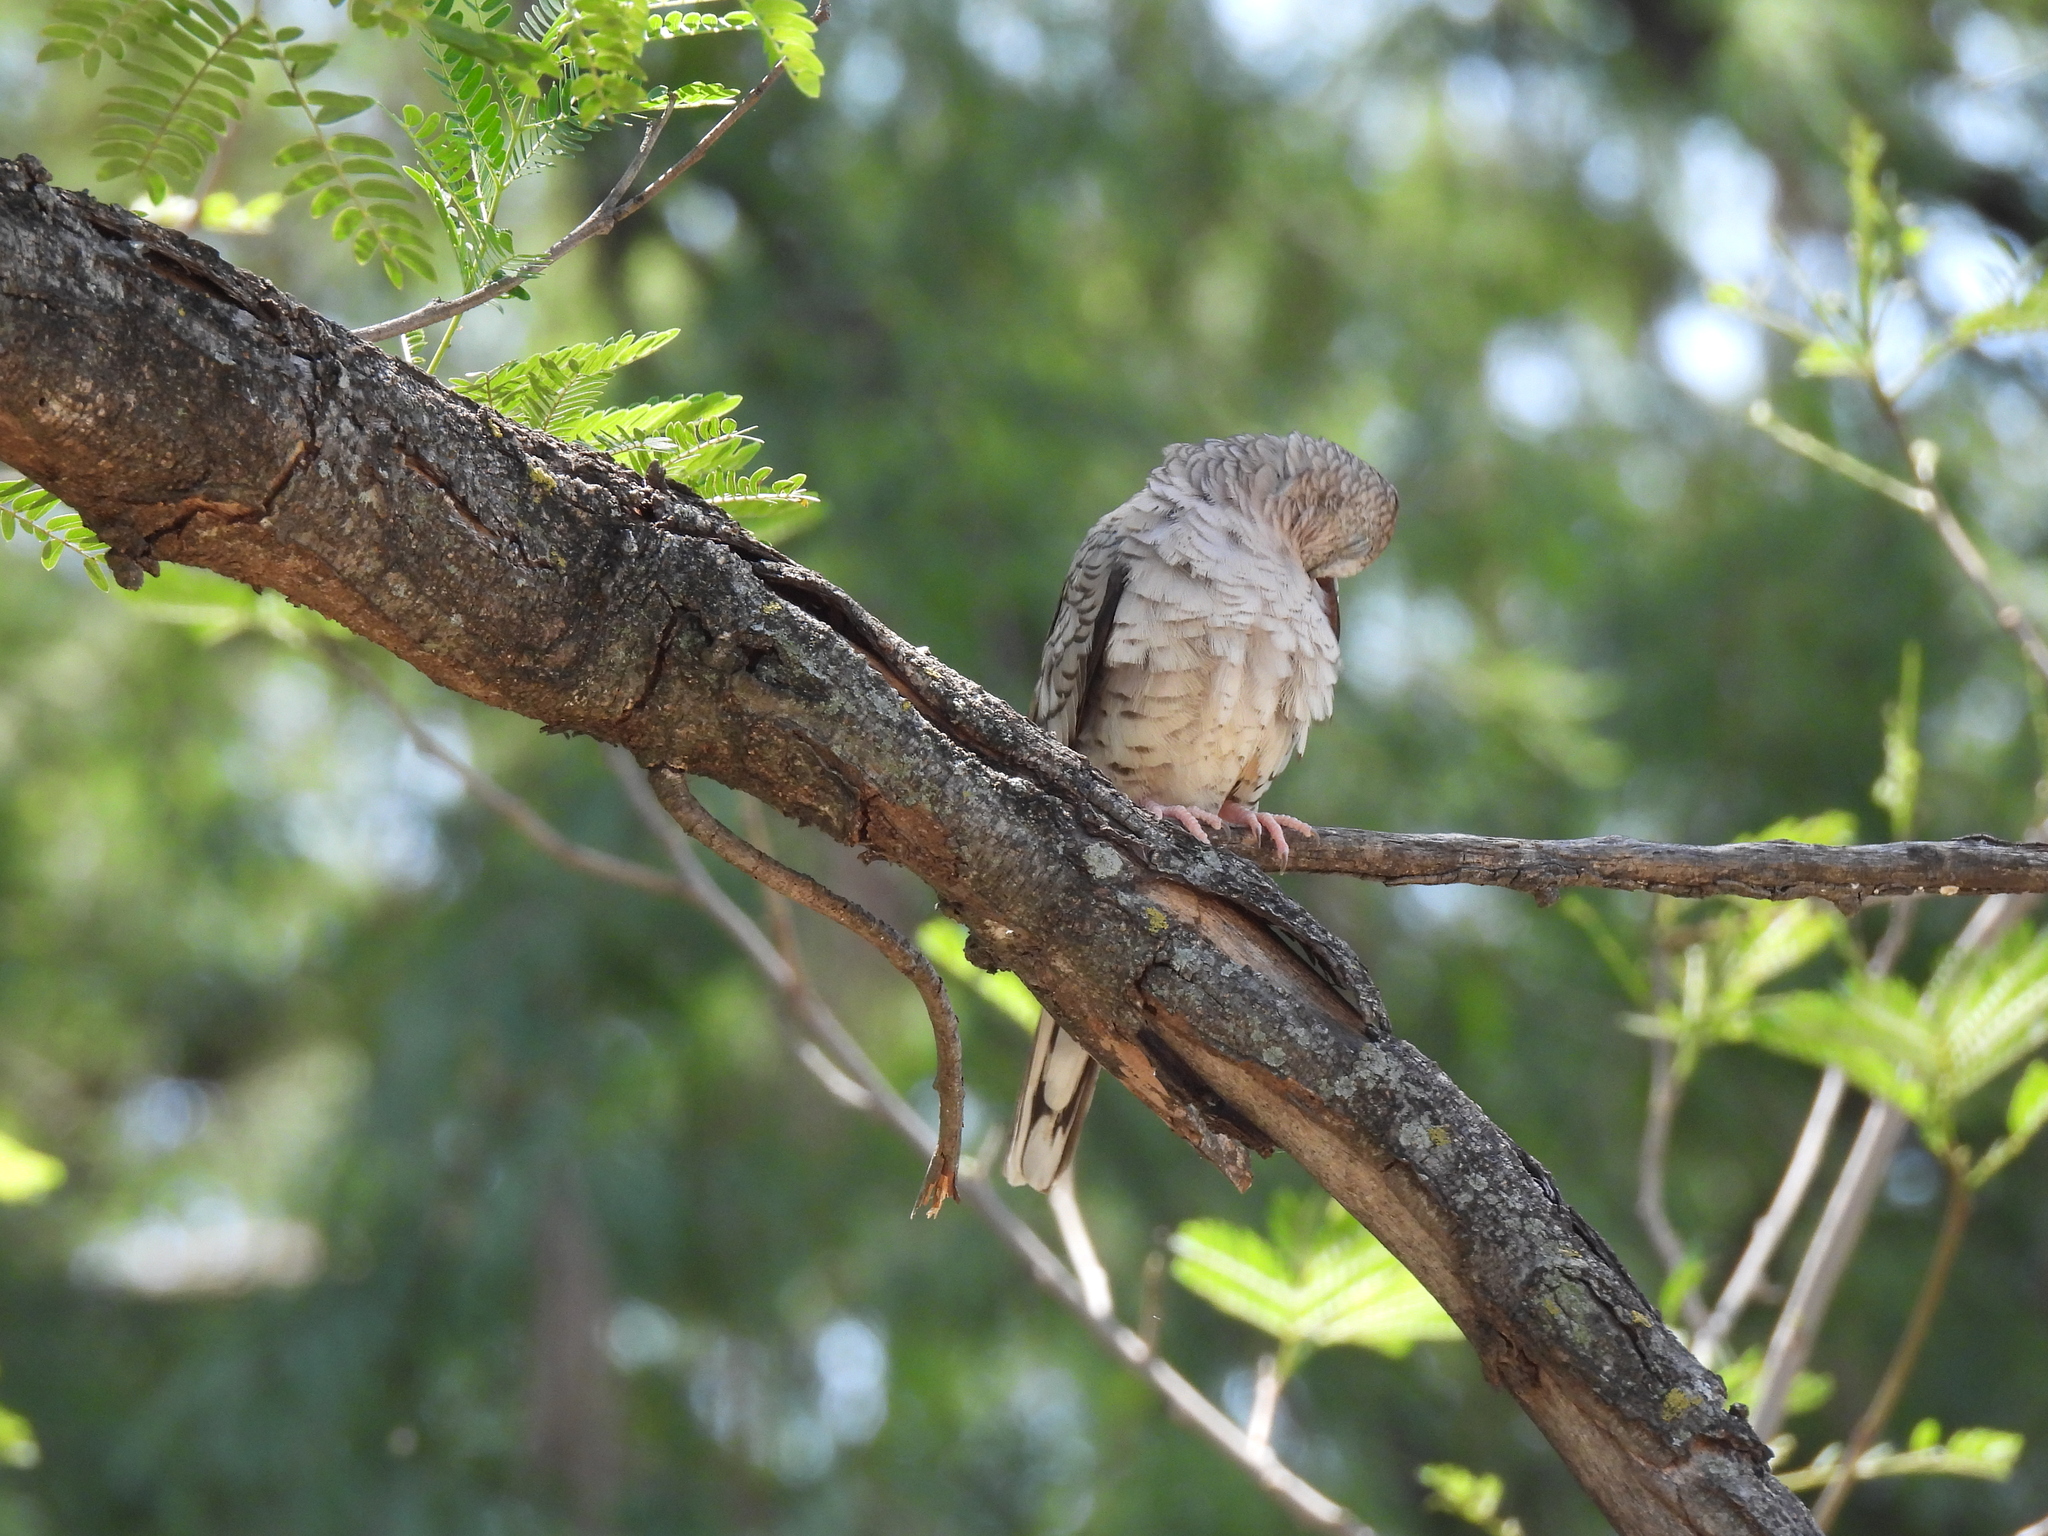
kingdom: Animalia
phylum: Chordata
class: Aves
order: Columbiformes
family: Columbidae
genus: Columbina
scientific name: Columbina inca
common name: Inca dove
